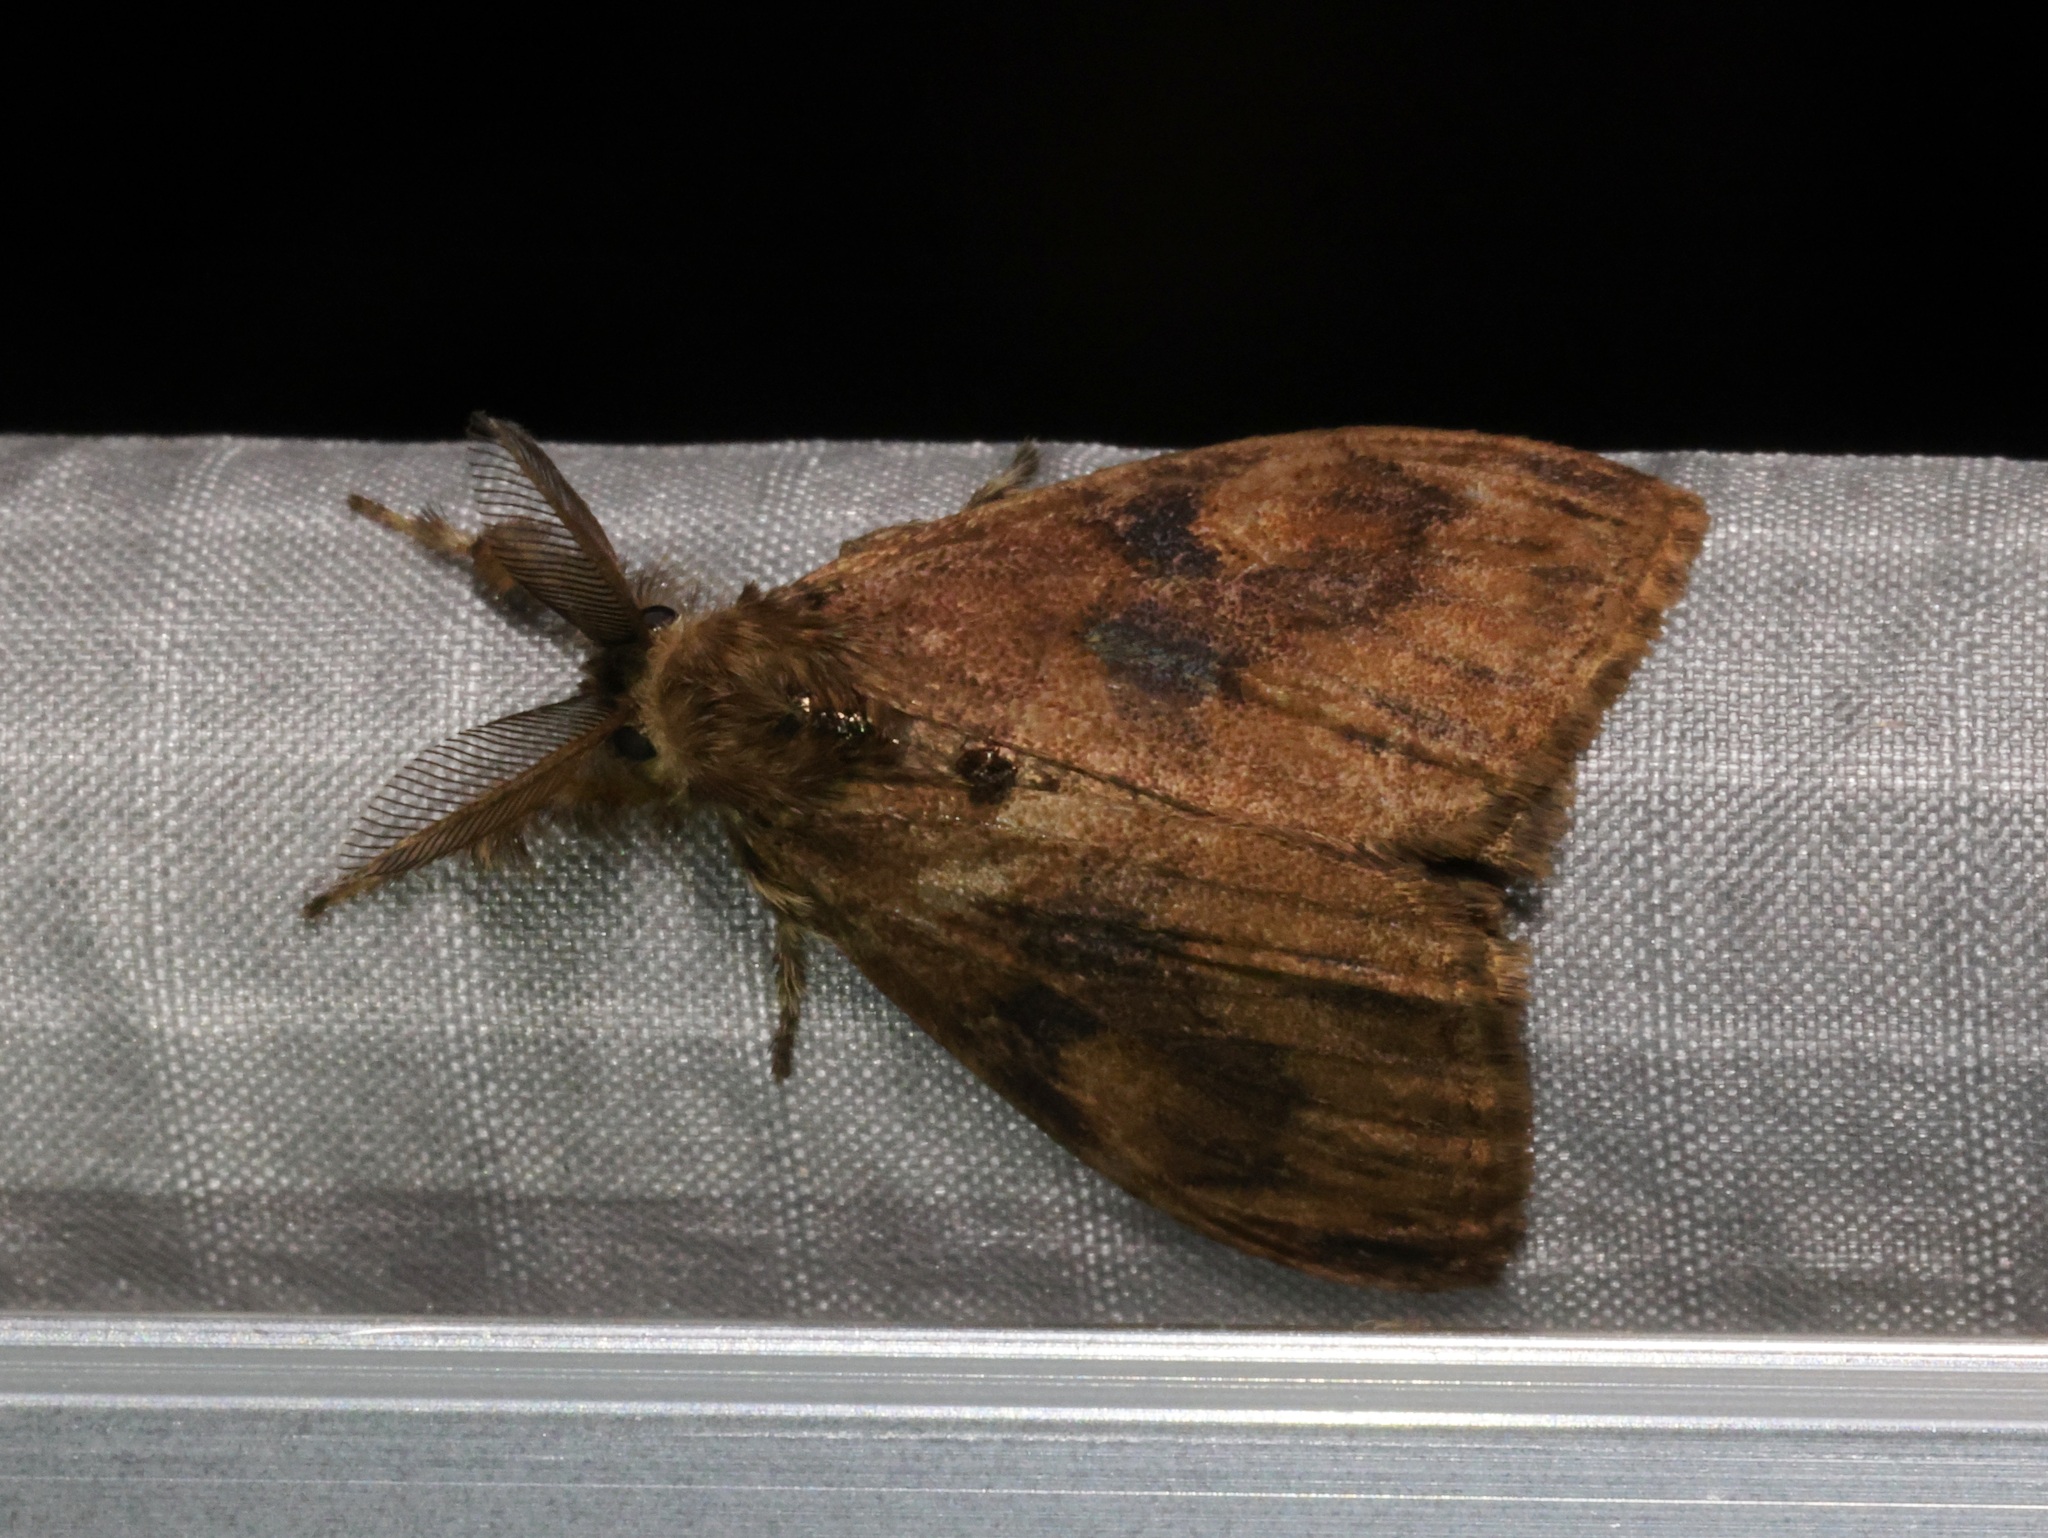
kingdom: Animalia
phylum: Arthropoda
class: Insecta
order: Lepidoptera
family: Erebidae
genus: Orgyia
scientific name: Orgyia postica
